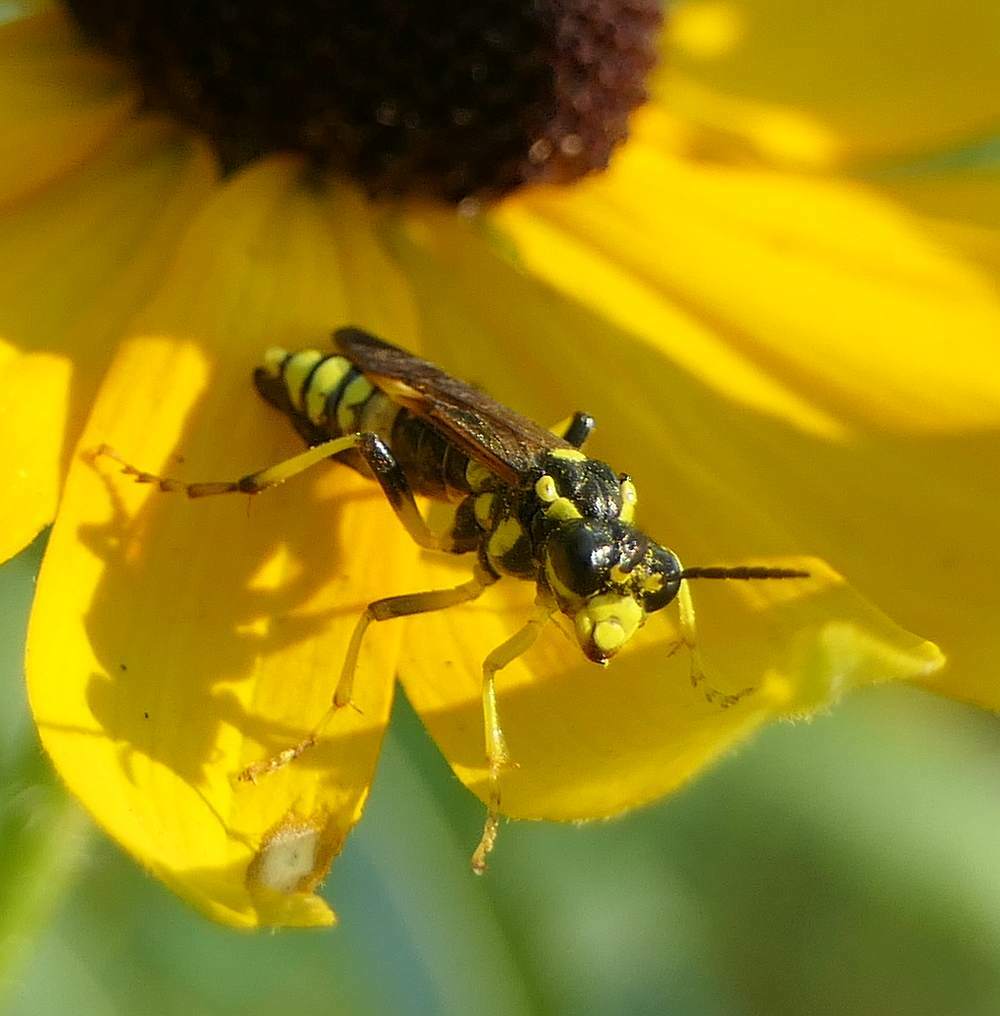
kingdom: Animalia
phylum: Arthropoda
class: Insecta
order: Hymenoptera
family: Tenthredinidae
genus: Tenthredo
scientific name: Tenthredo
